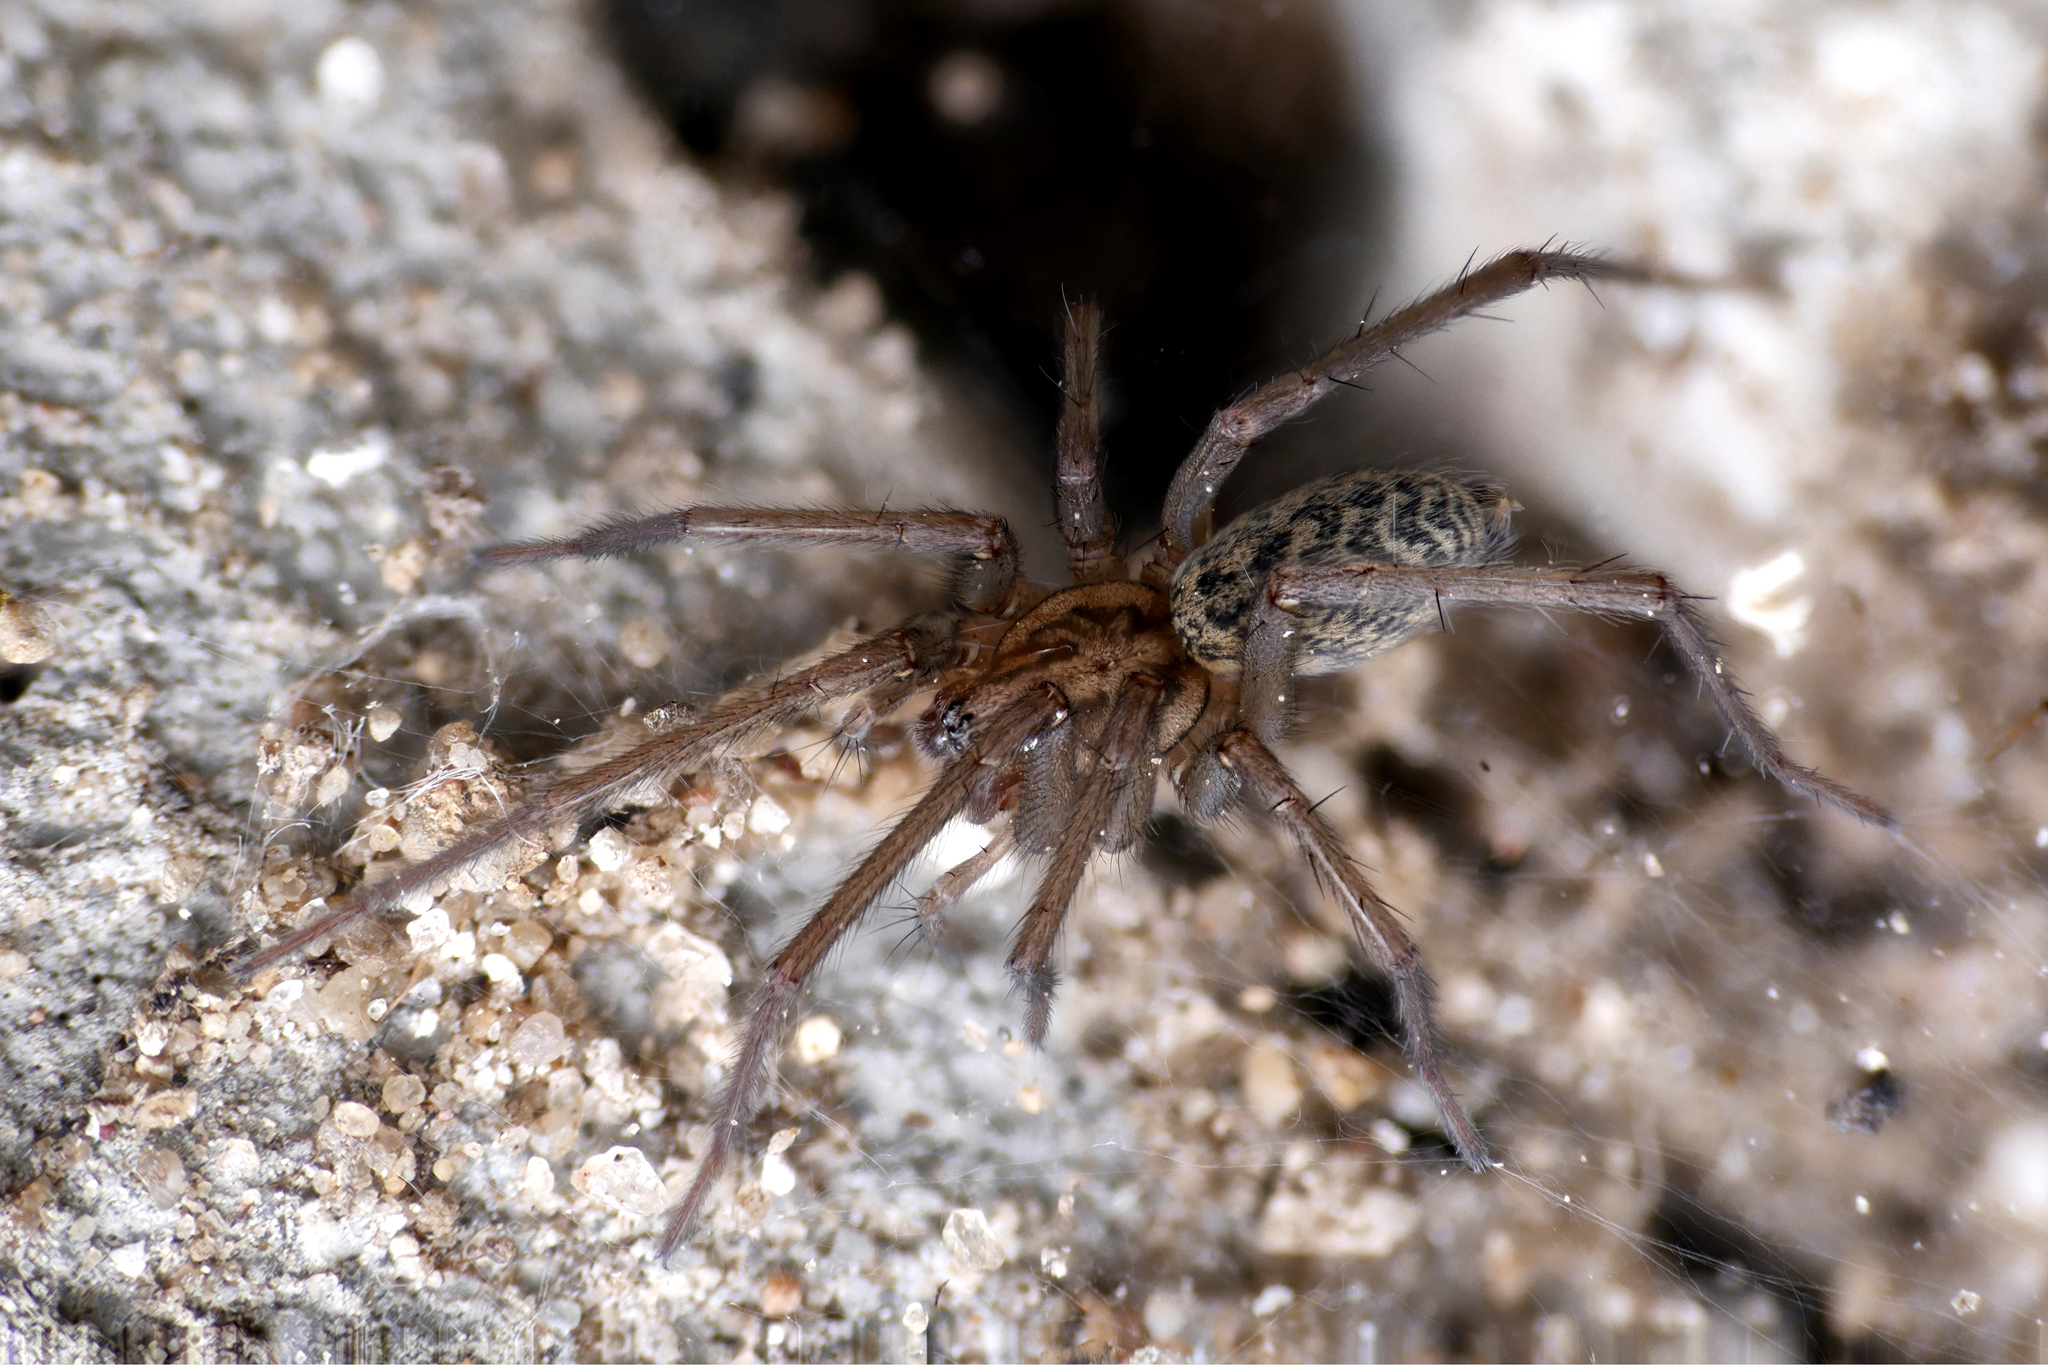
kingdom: Animalia
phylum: Arthropoda
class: Arachnida
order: Araneae
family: Agelenidae
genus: Eratigena
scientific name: Eratigena atrica
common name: Giant house spider
